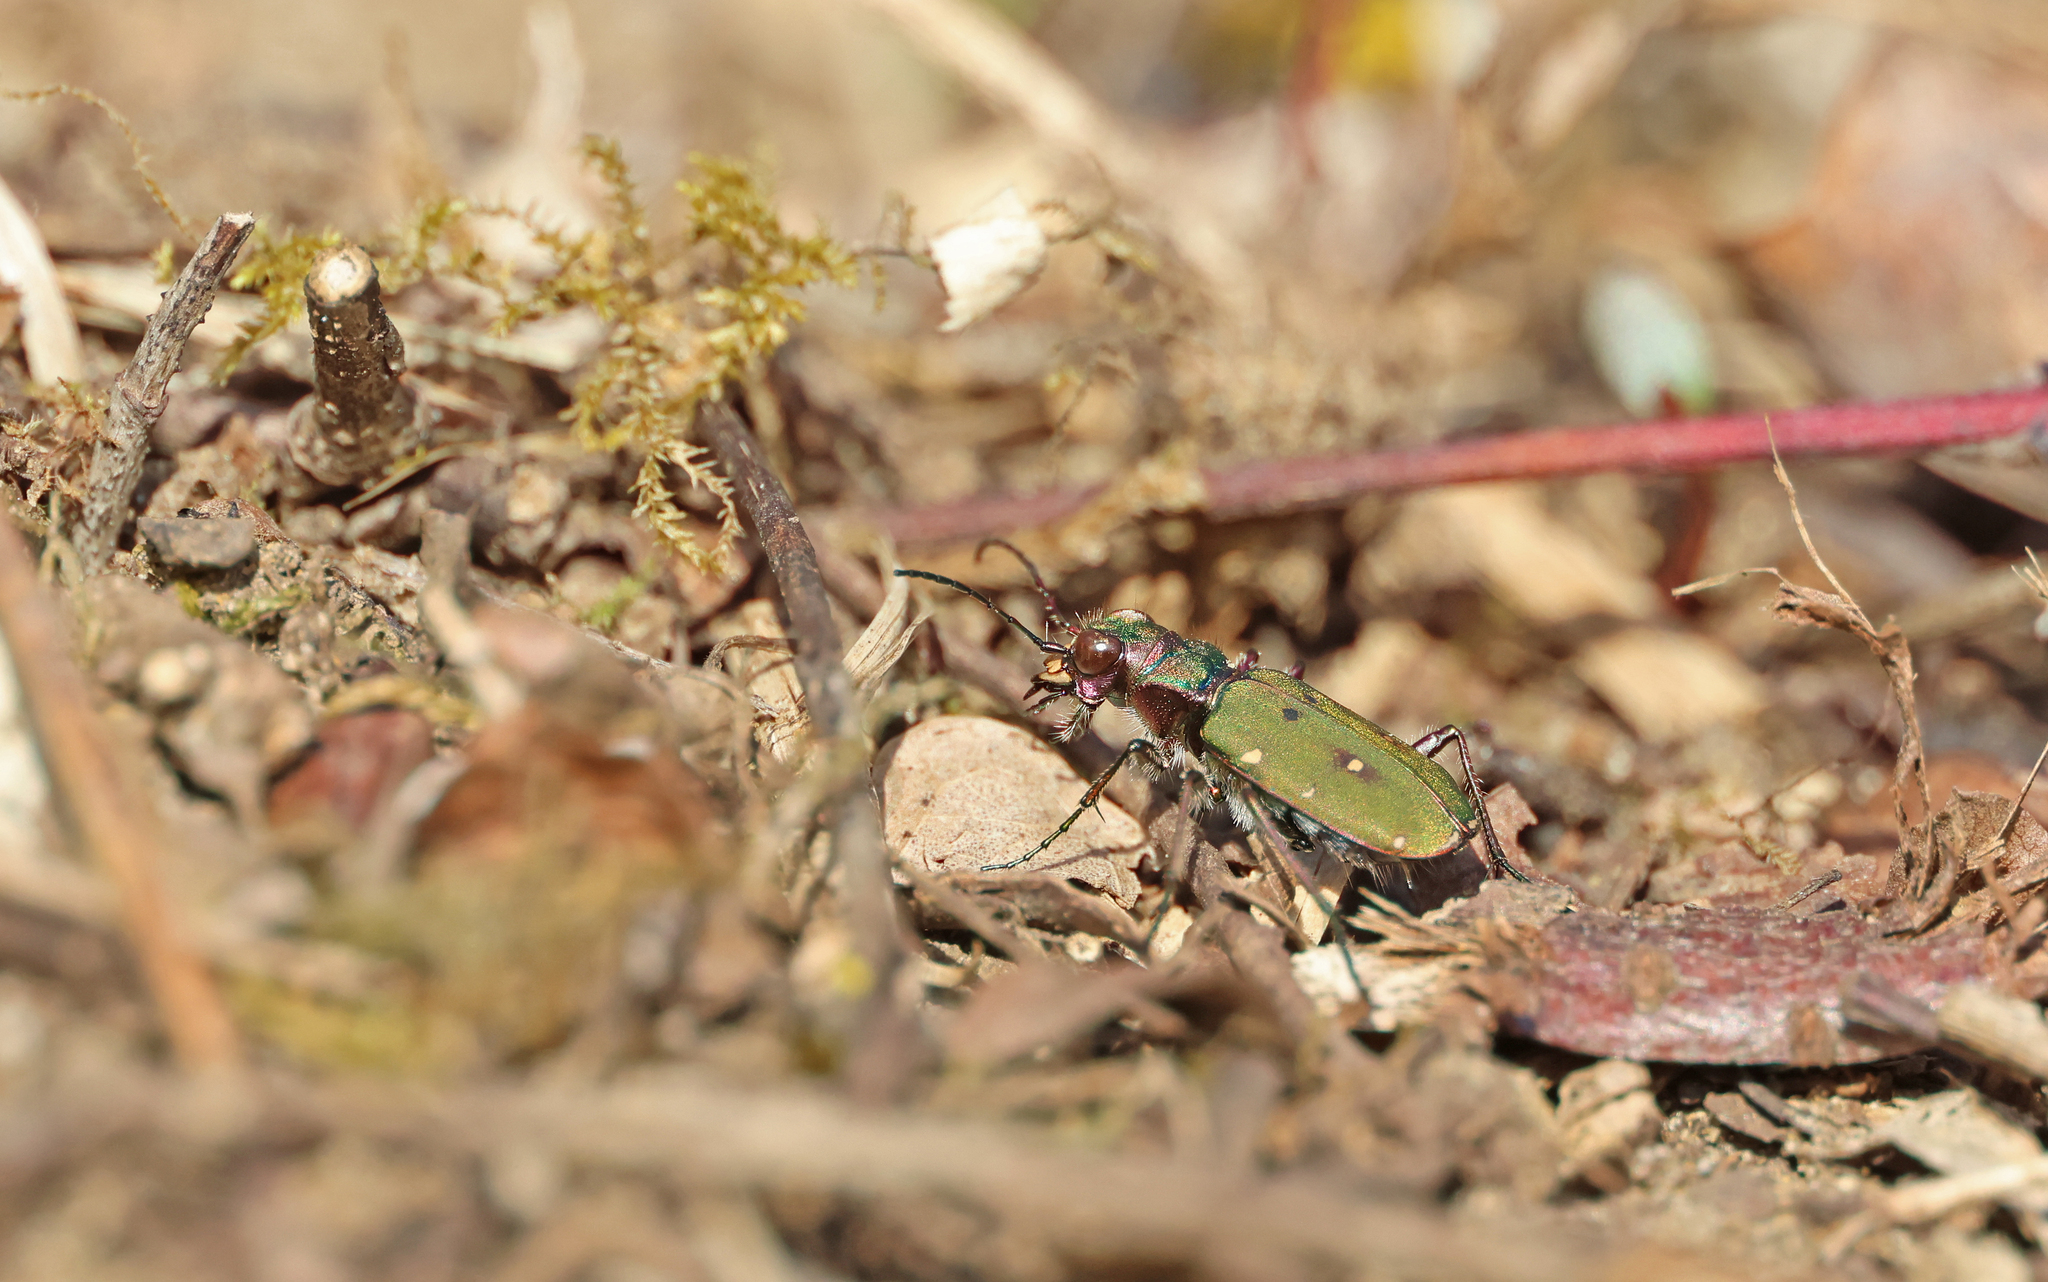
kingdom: Animalia
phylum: Arthropoda
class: Insecta
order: Coleoptera
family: Carabidae
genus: Cicindela
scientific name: Cicindela campestris
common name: Common tiger beetle
